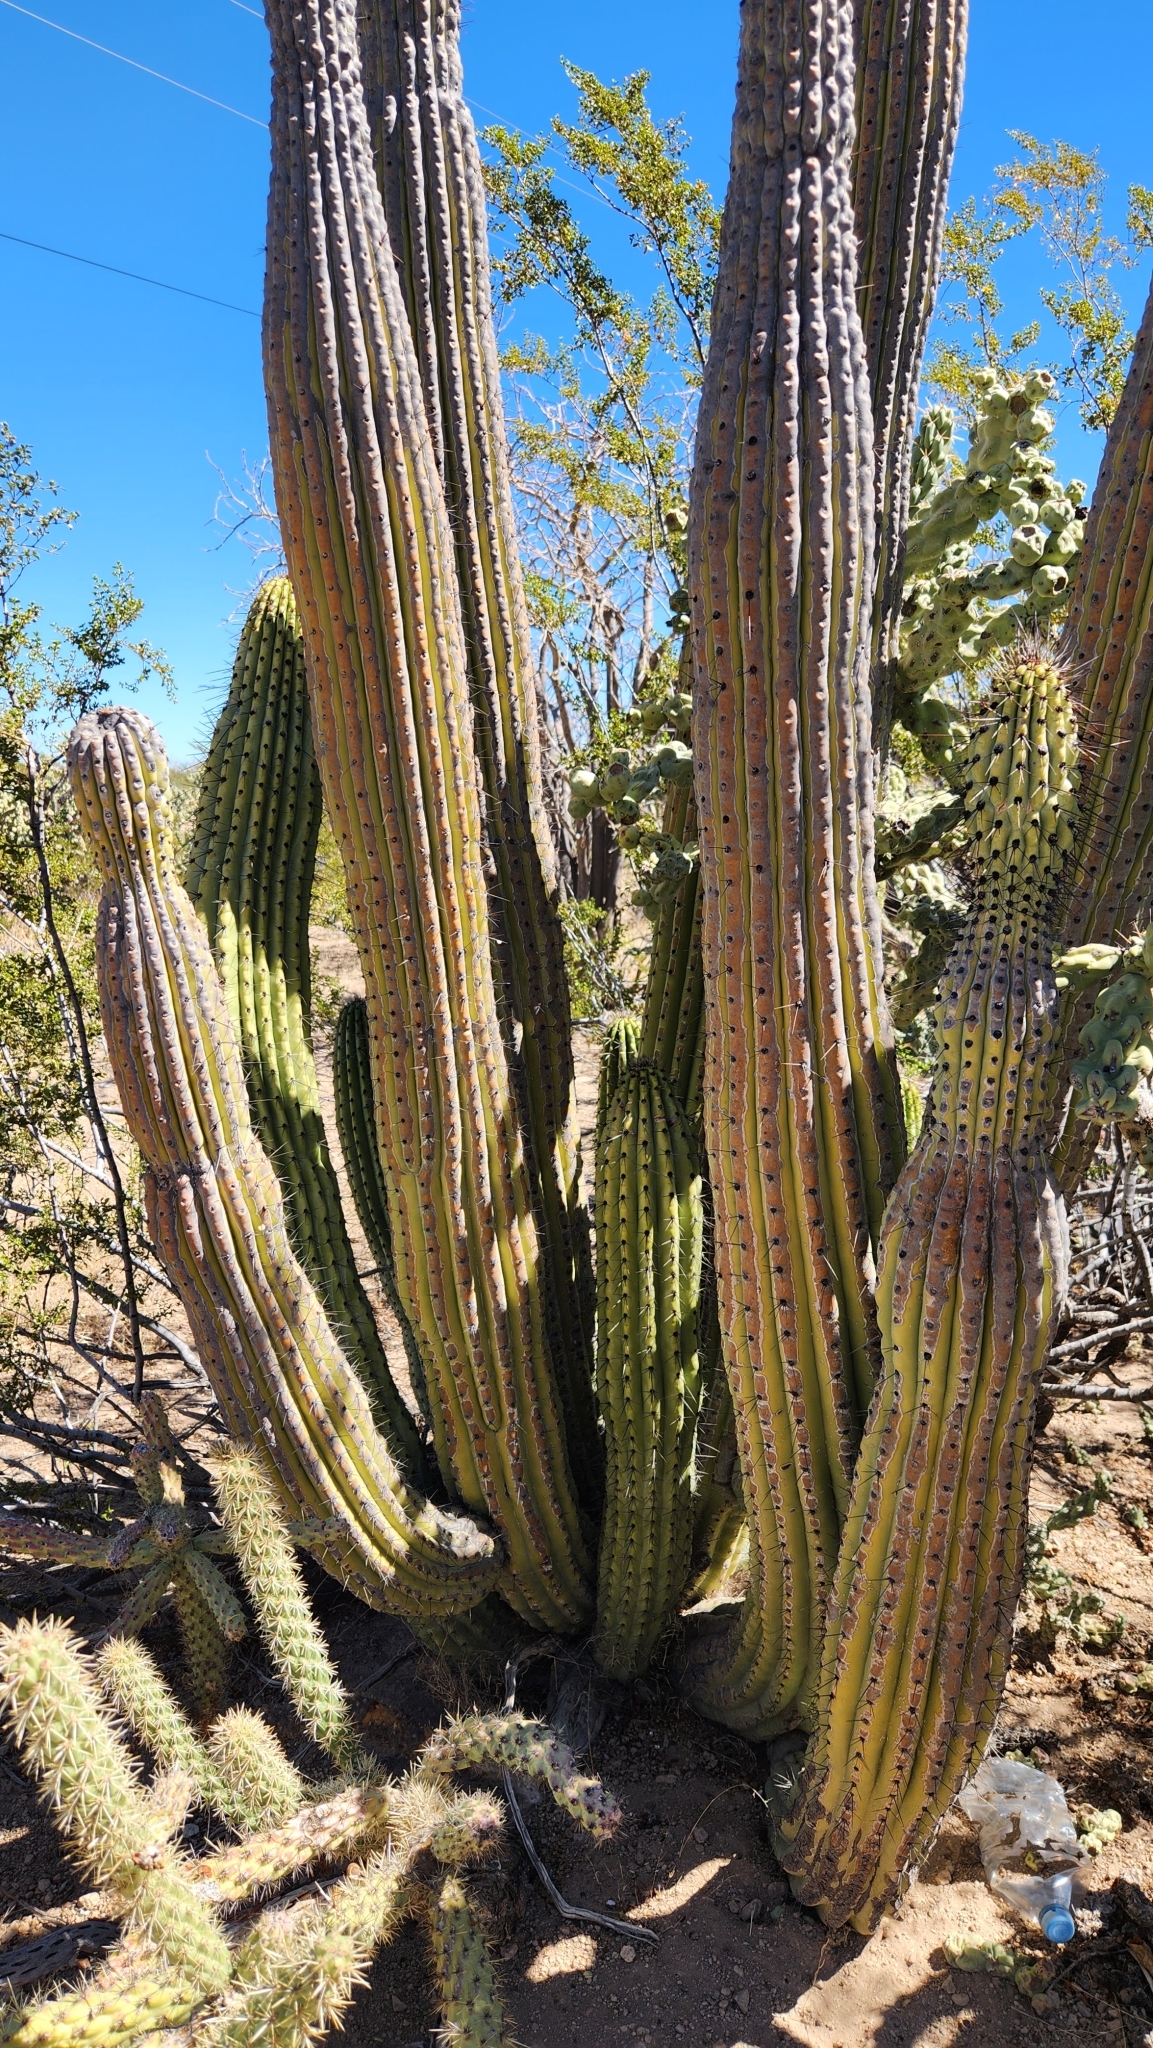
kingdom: Plantae
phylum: Tracheophyta
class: Magnoliopsida
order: Caryophyllales
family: Cactaceae
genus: Stenocereus
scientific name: Stenocereus thurberi
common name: Organ pipe cactus
